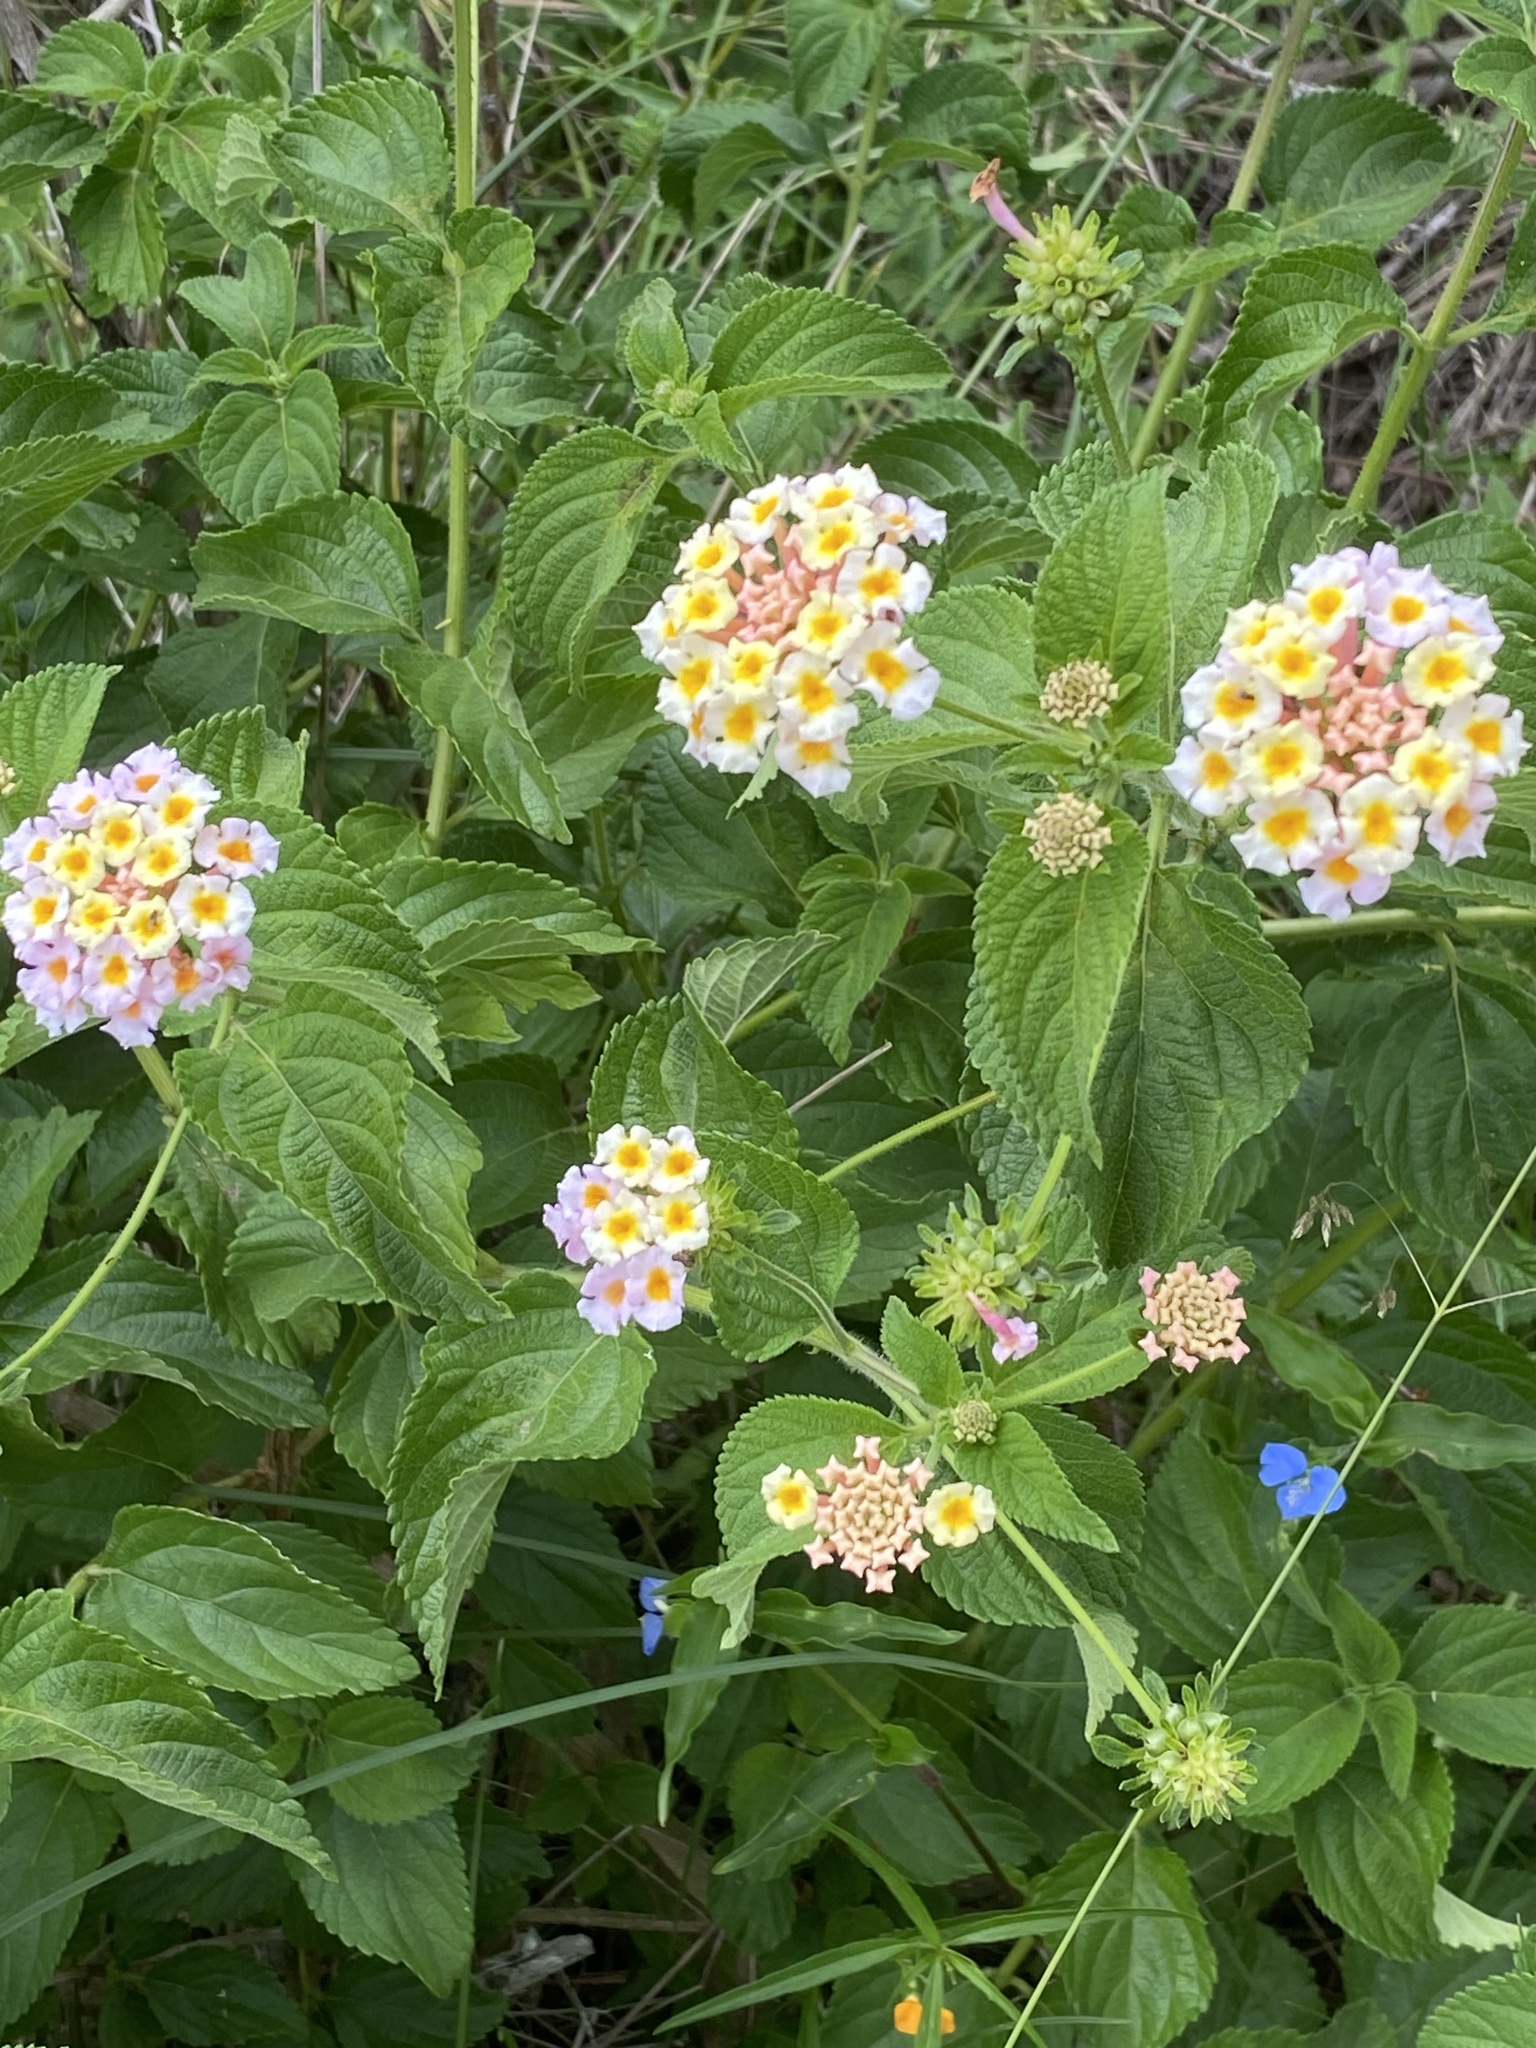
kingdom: Plantae
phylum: Tracheophyta
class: Magnoliopsida
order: Lamiales
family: Verbenaceae
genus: Lantana
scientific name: Lantana camara
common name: Lantana
